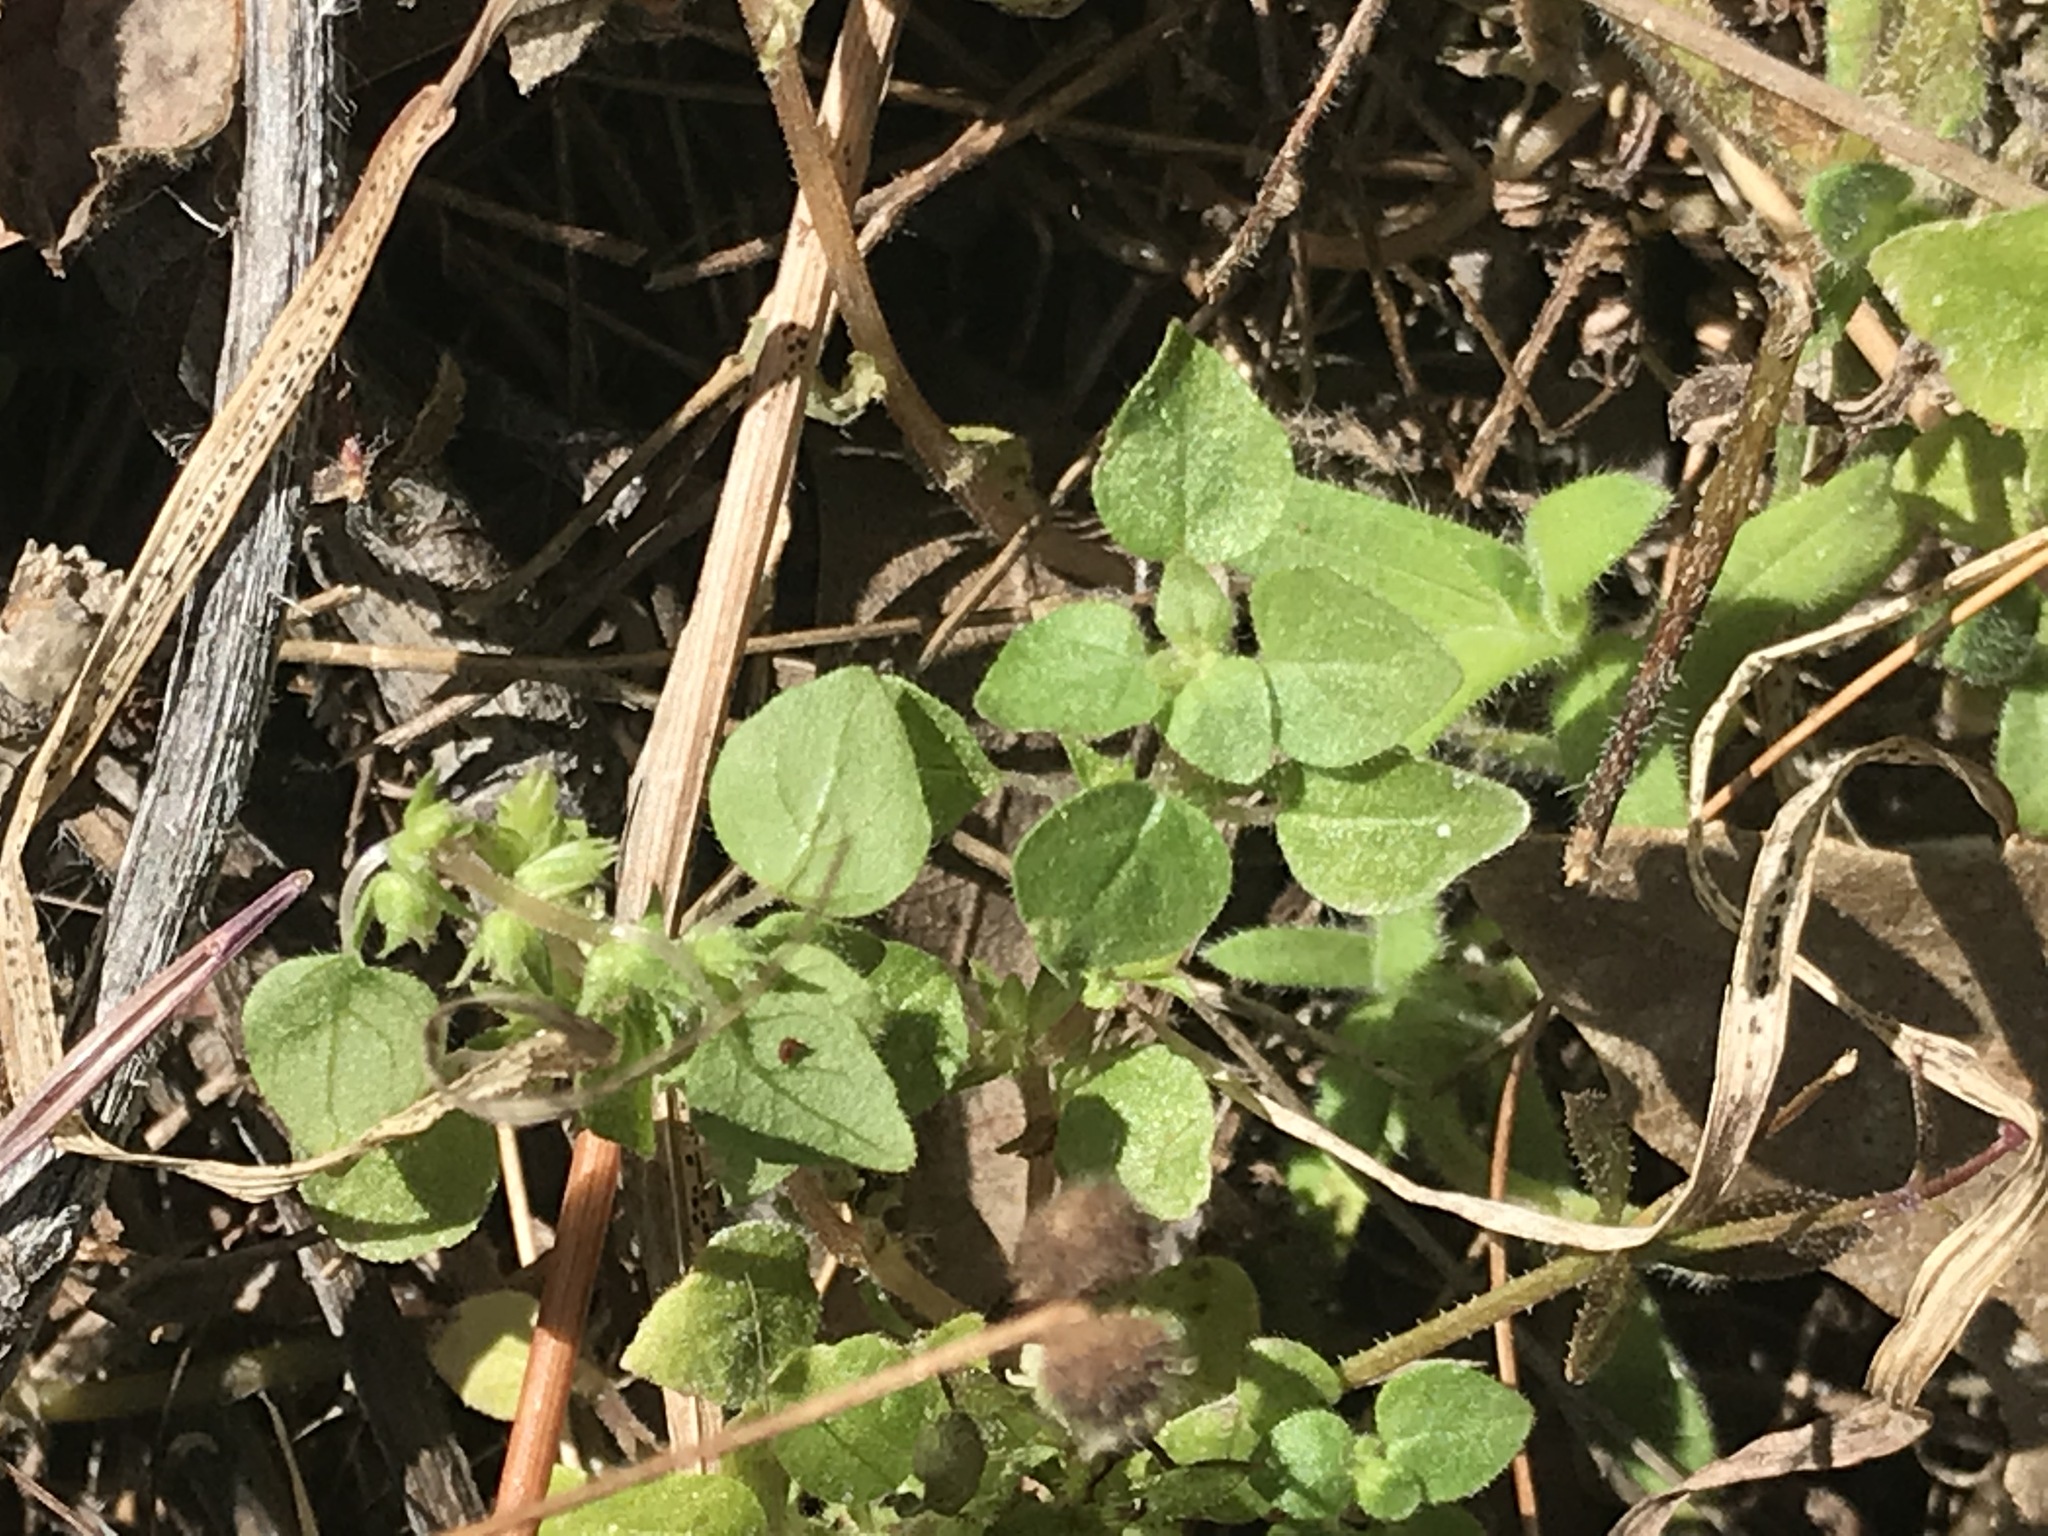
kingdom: Plantae
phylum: Tracheophyta
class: Magnoliopsida
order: Rosales
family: Urticaceae
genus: Parietaria
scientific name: Parietaria hespera
